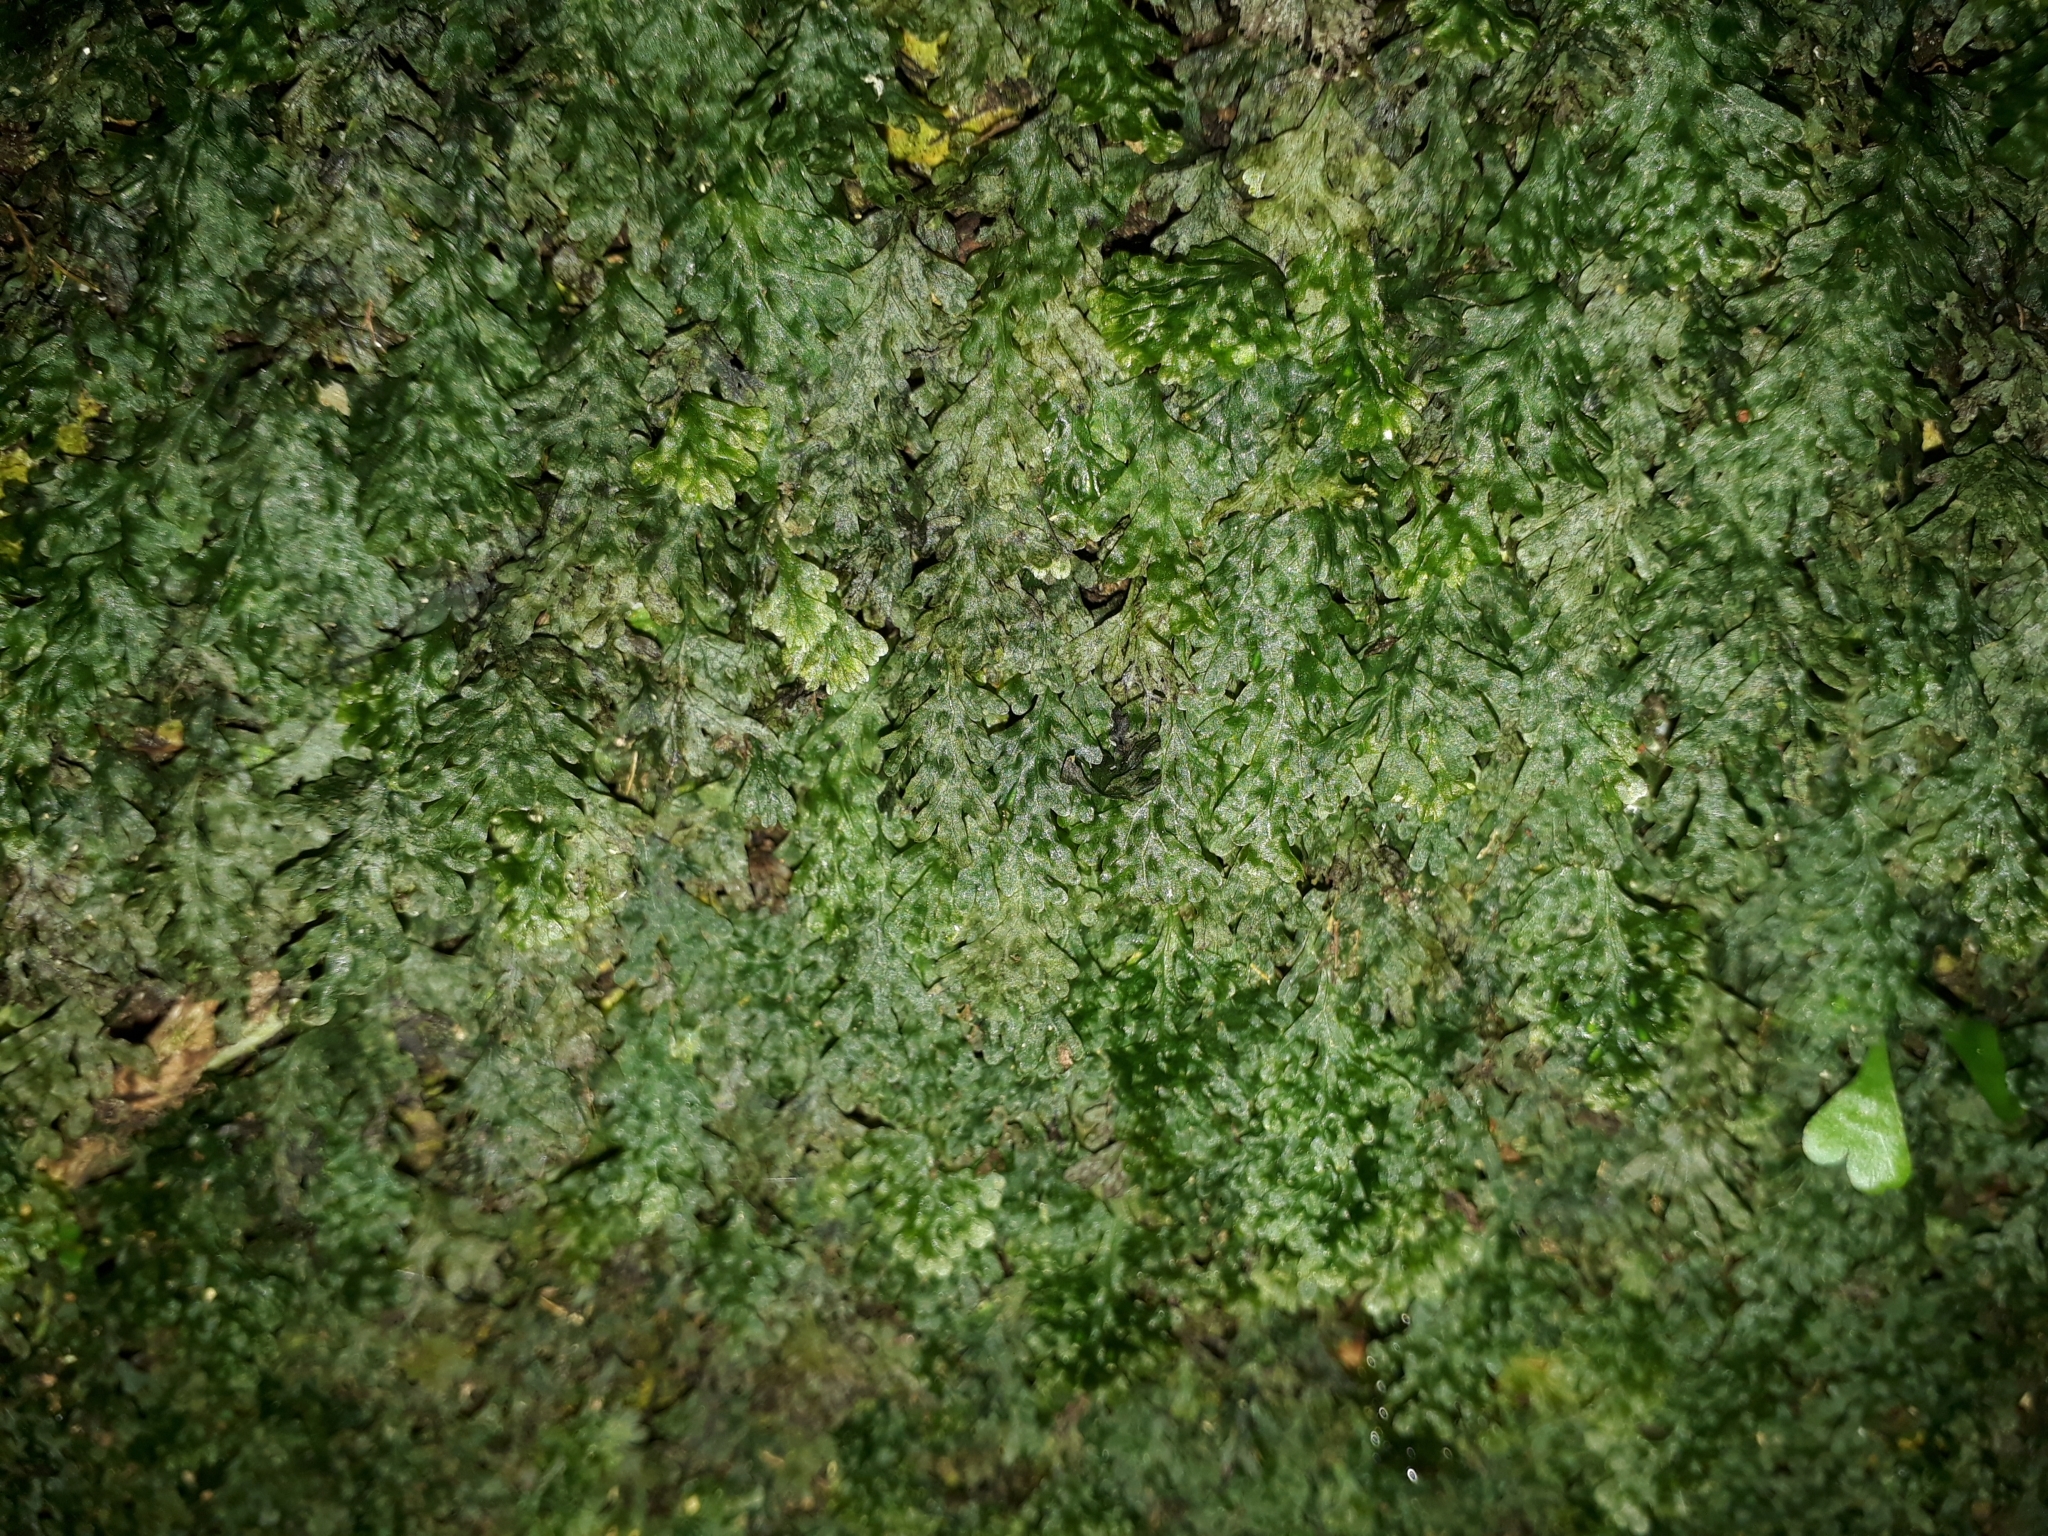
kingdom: Plantae
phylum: Tracheophyta
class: Polypodiopsida
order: Hymenophyllales
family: Hymenophyllaceae
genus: Polyphlebium
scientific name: Polyphlebium endlicherianum
